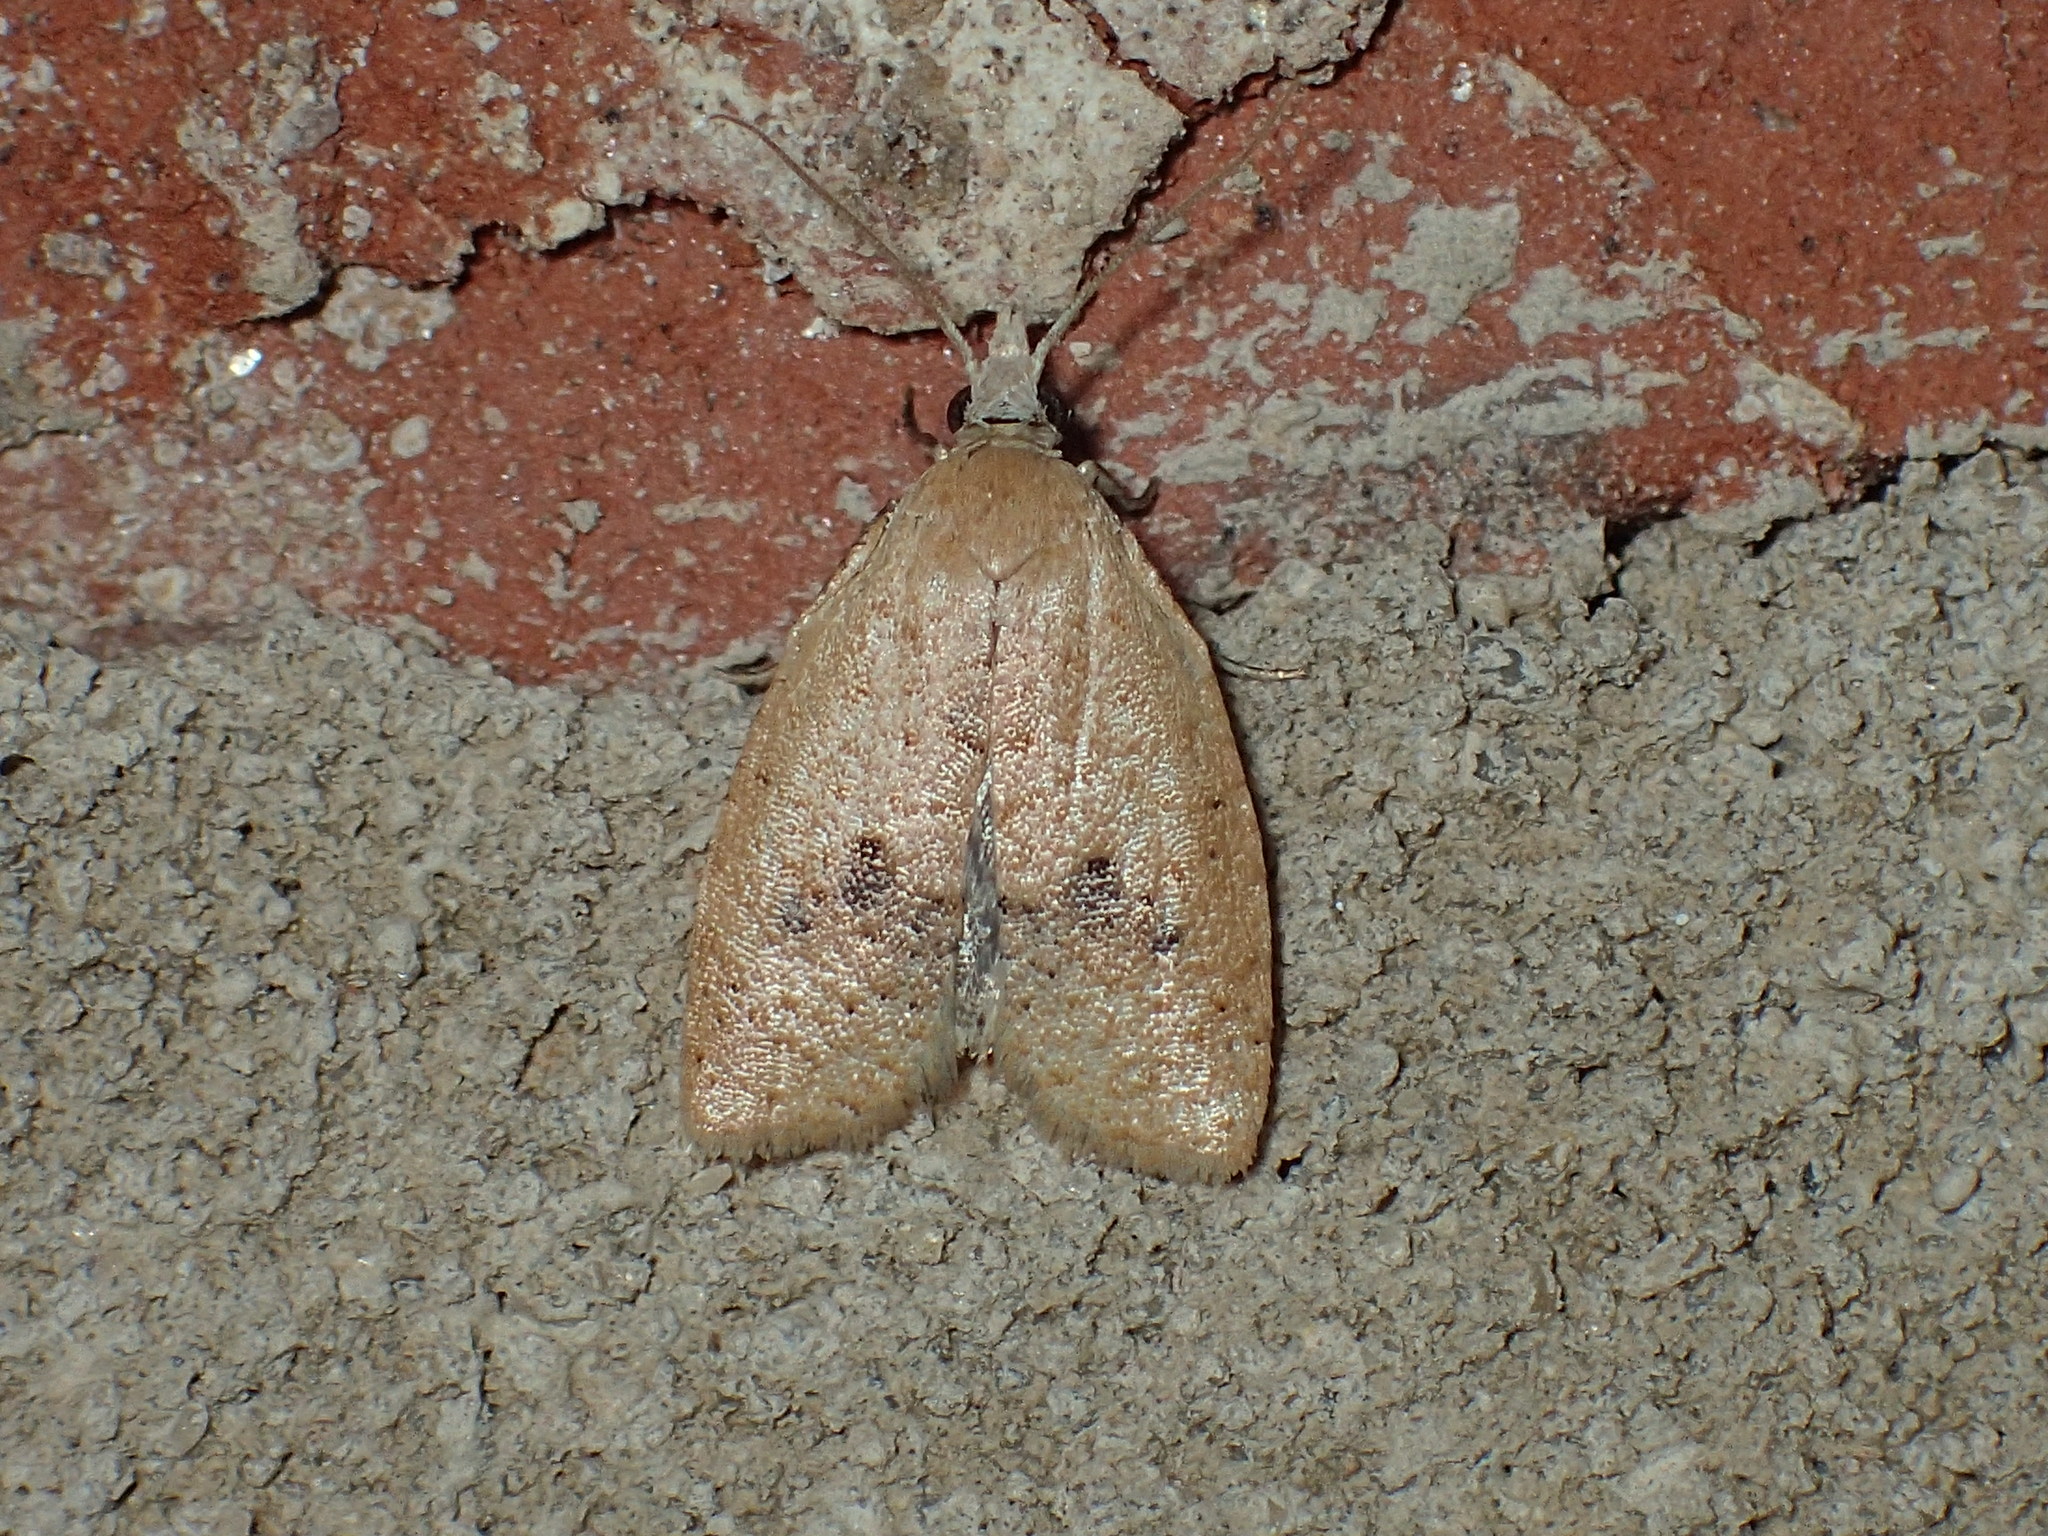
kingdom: Animalia
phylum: Arthropoda
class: Insecta
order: Lepidoptera
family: Tortricidae
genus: Sparganothoides
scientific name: Sparganothoides lentiginosana
